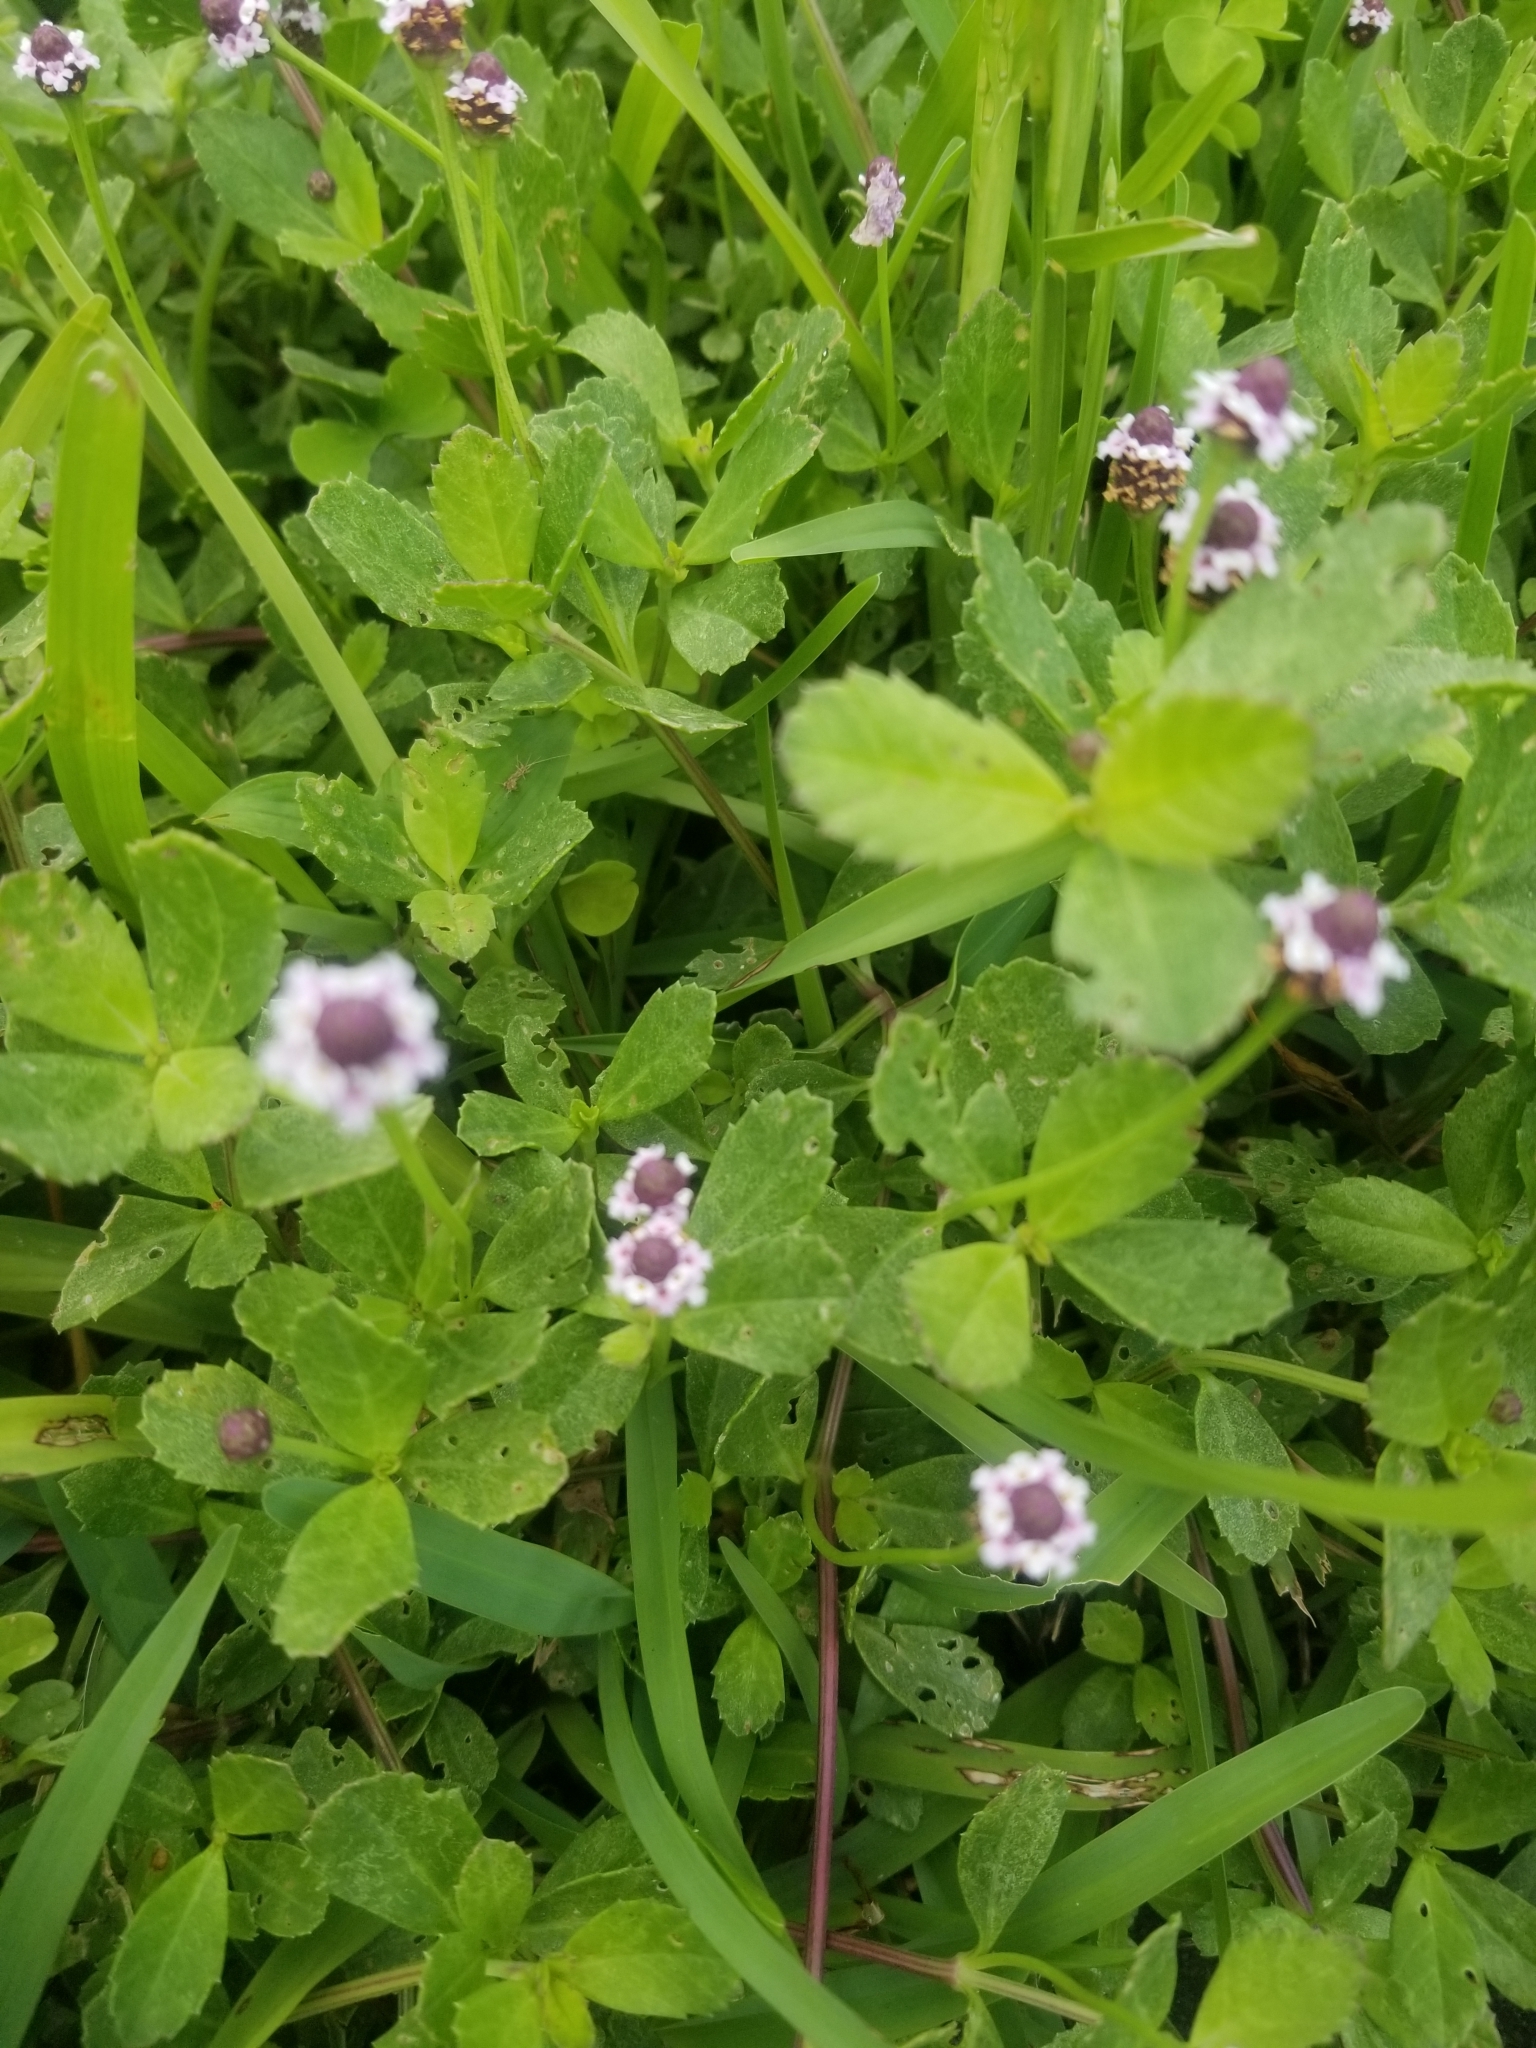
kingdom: Plantae
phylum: Tracheophyta
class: Magnoliopsida
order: Lamiales
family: Verbenaceae
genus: Phyla
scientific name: Phyla nodiflora
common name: Frogfruit
